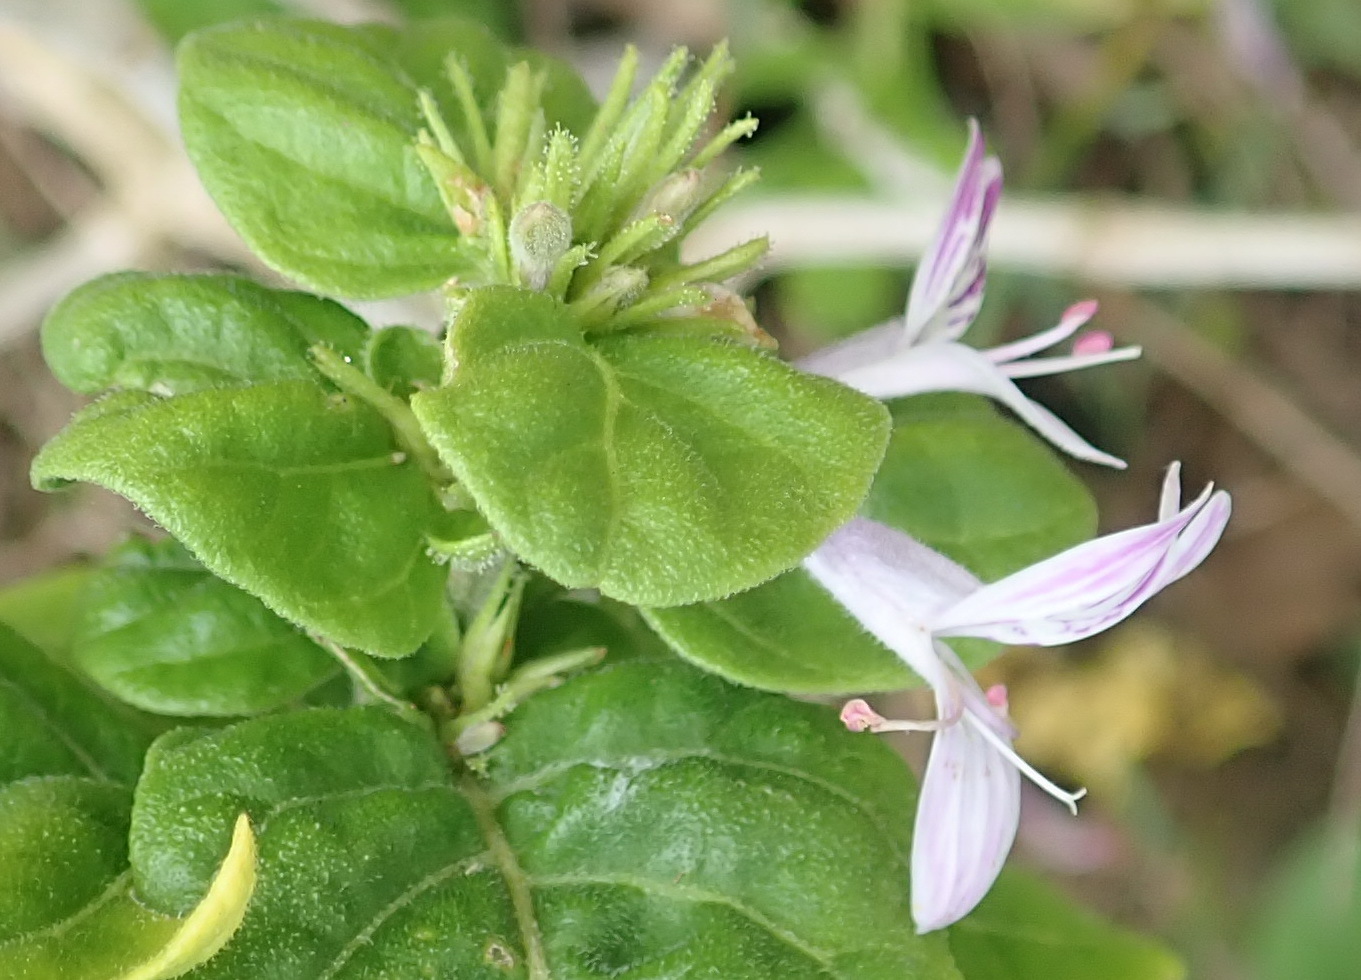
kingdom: Plantae
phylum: Tracheophyta
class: Magnoliopsida
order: Lamiales
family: Acanthaceae
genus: Hypoestes
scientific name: Hypoestes aristata
